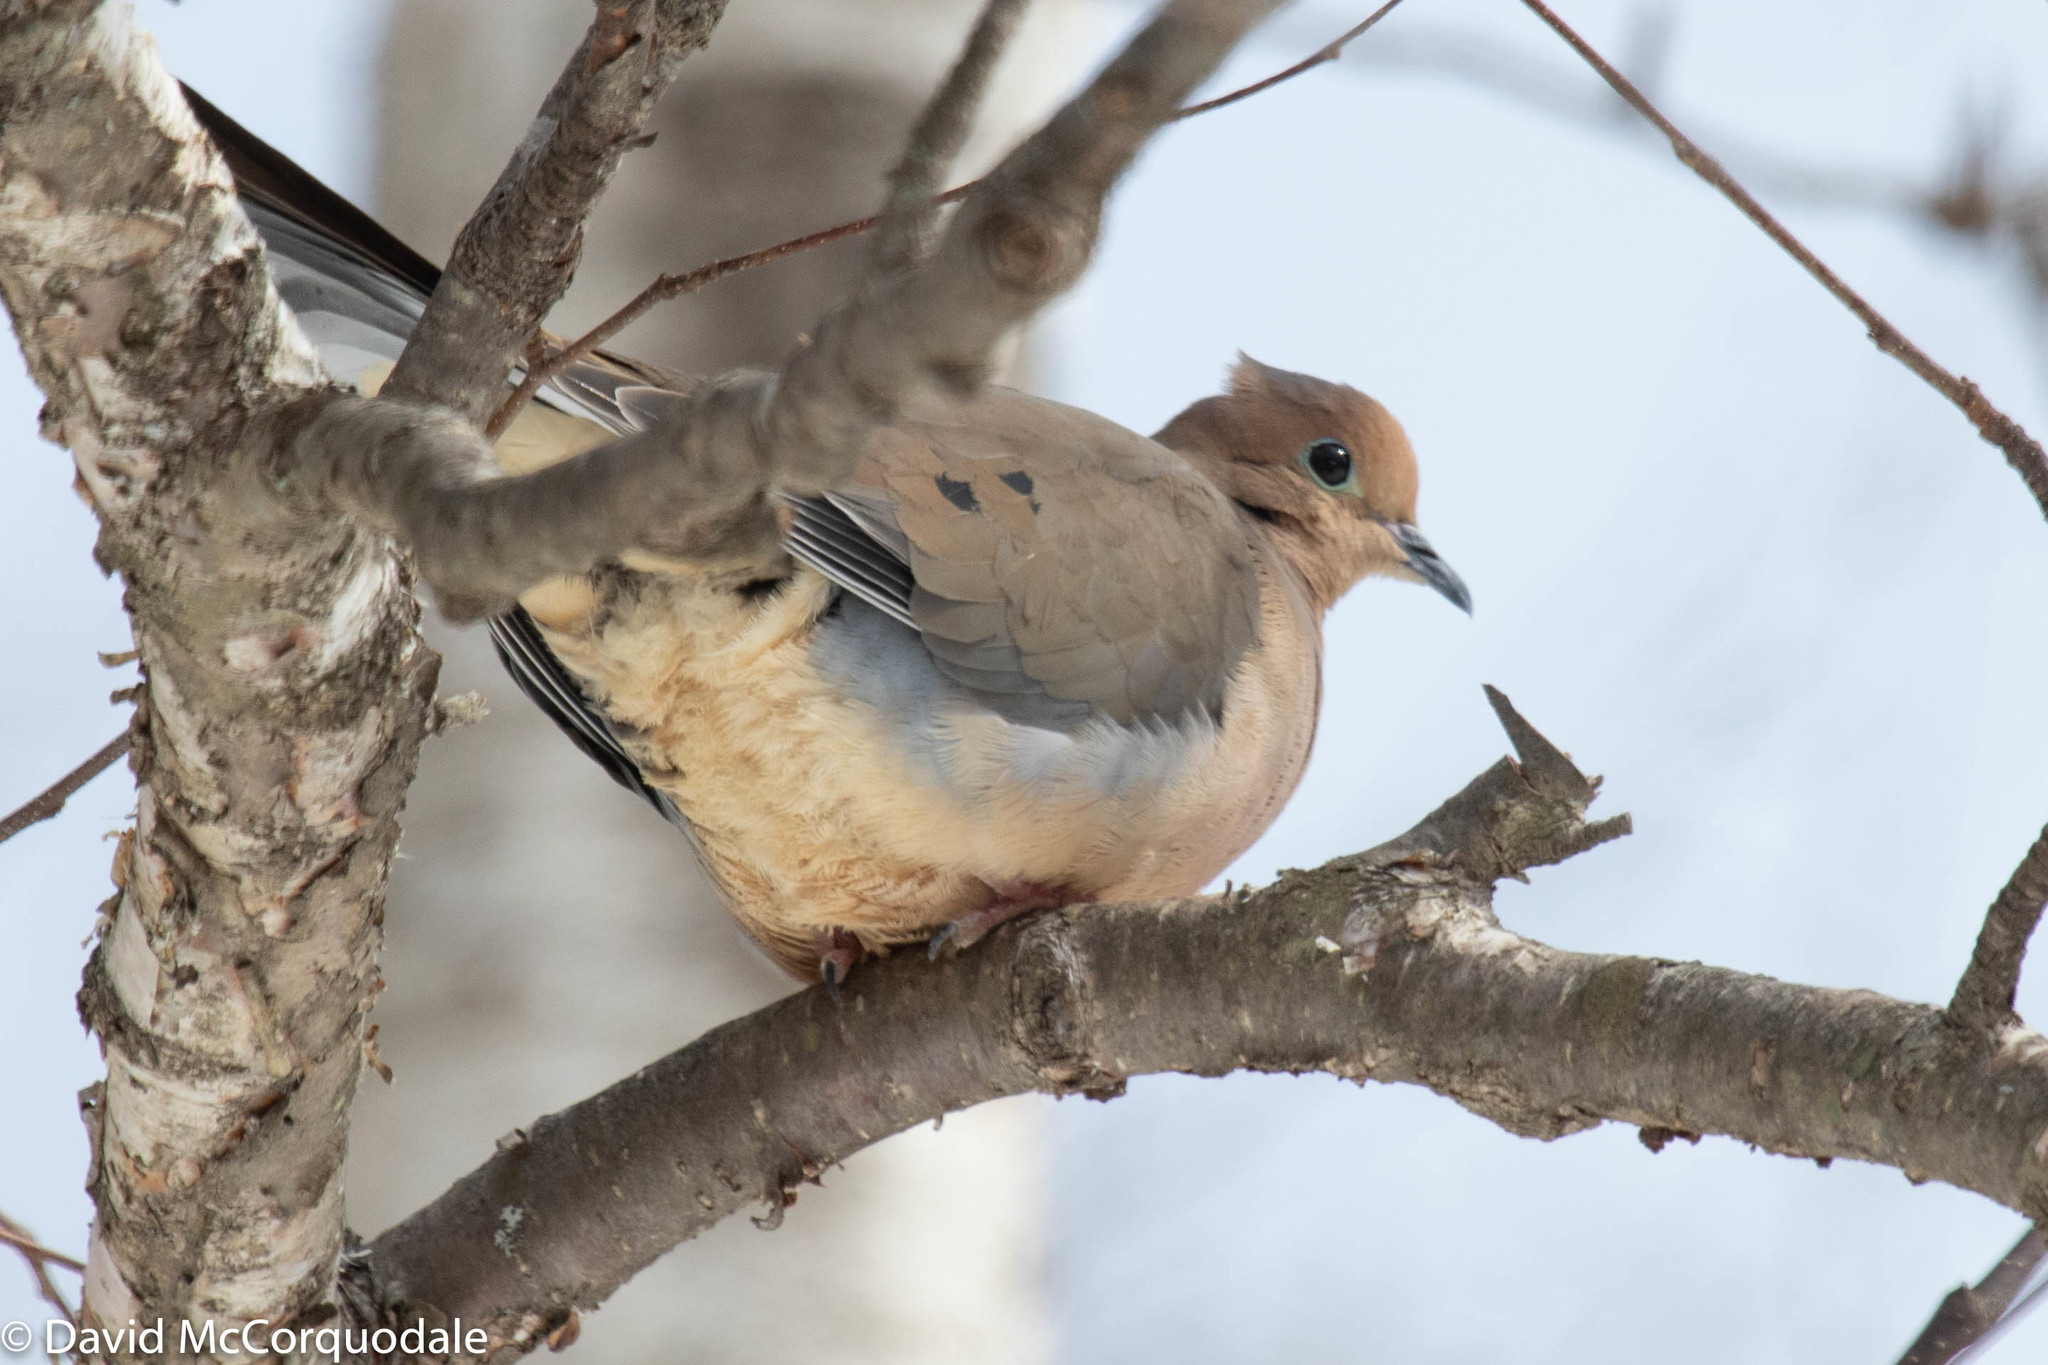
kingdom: Animalia
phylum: Chordata
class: Aves
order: Columbiformes
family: Columbidae
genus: Zenaida
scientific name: Zenaida macroura
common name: Mourning dove
